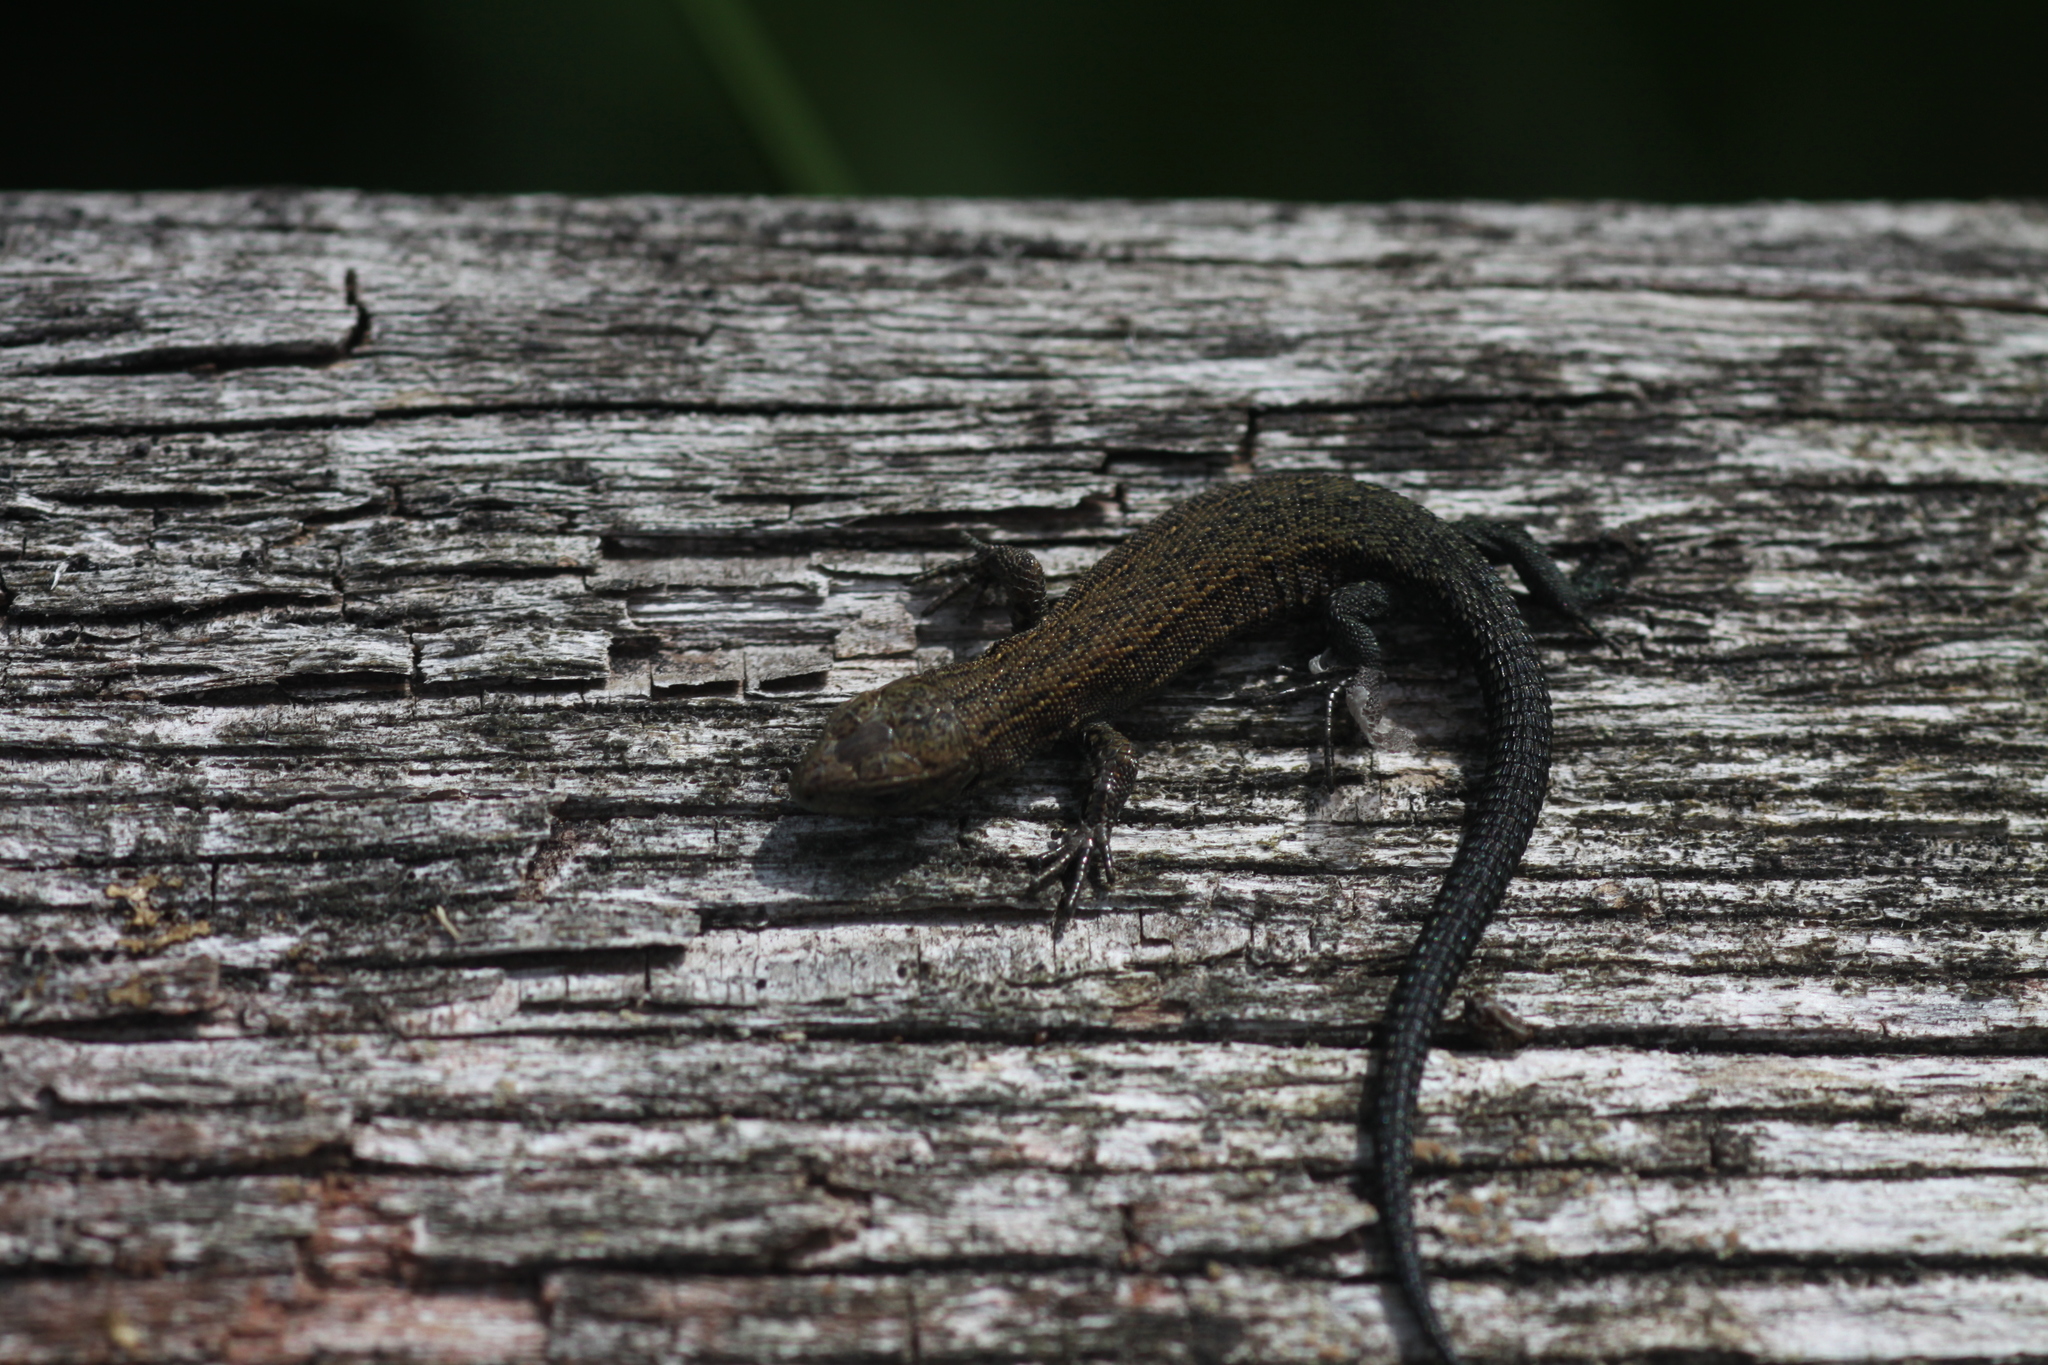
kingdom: Animalia
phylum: Chordata
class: Squamata
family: Lacertidae
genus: Zootoca
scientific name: Zootoca vivipara
